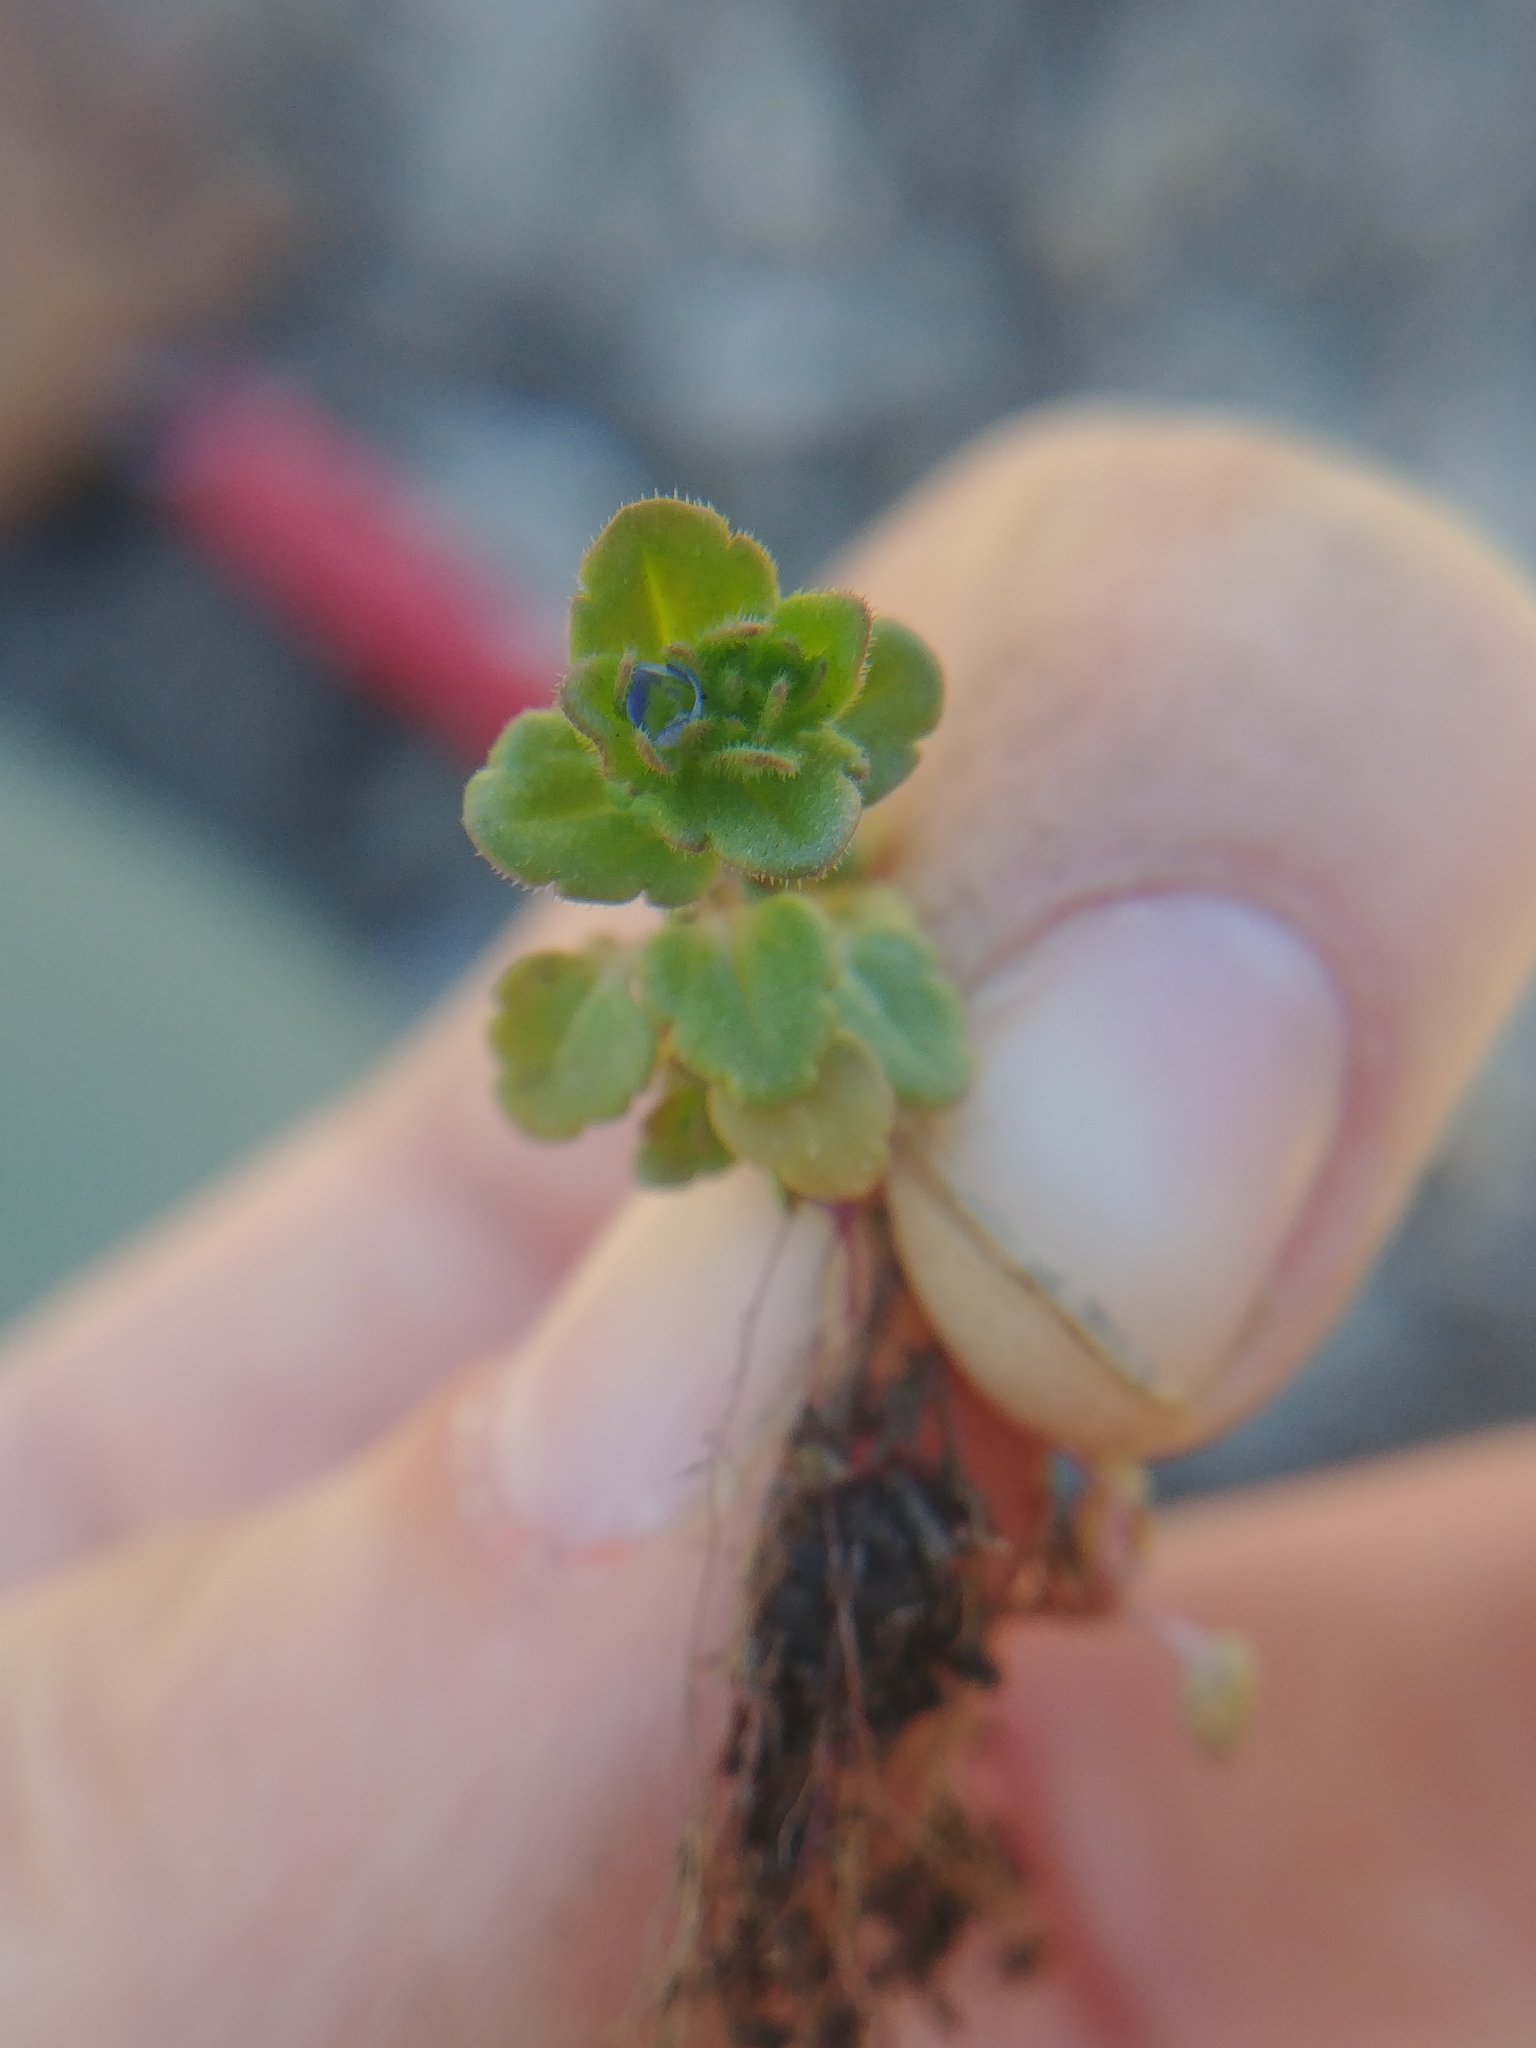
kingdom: Plantae
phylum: Tracheophyta
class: Magnoliopsida
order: Lamiales
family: Plantaginaceae
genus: Veronica
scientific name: Veronica arvensis
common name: Corn speedwell
